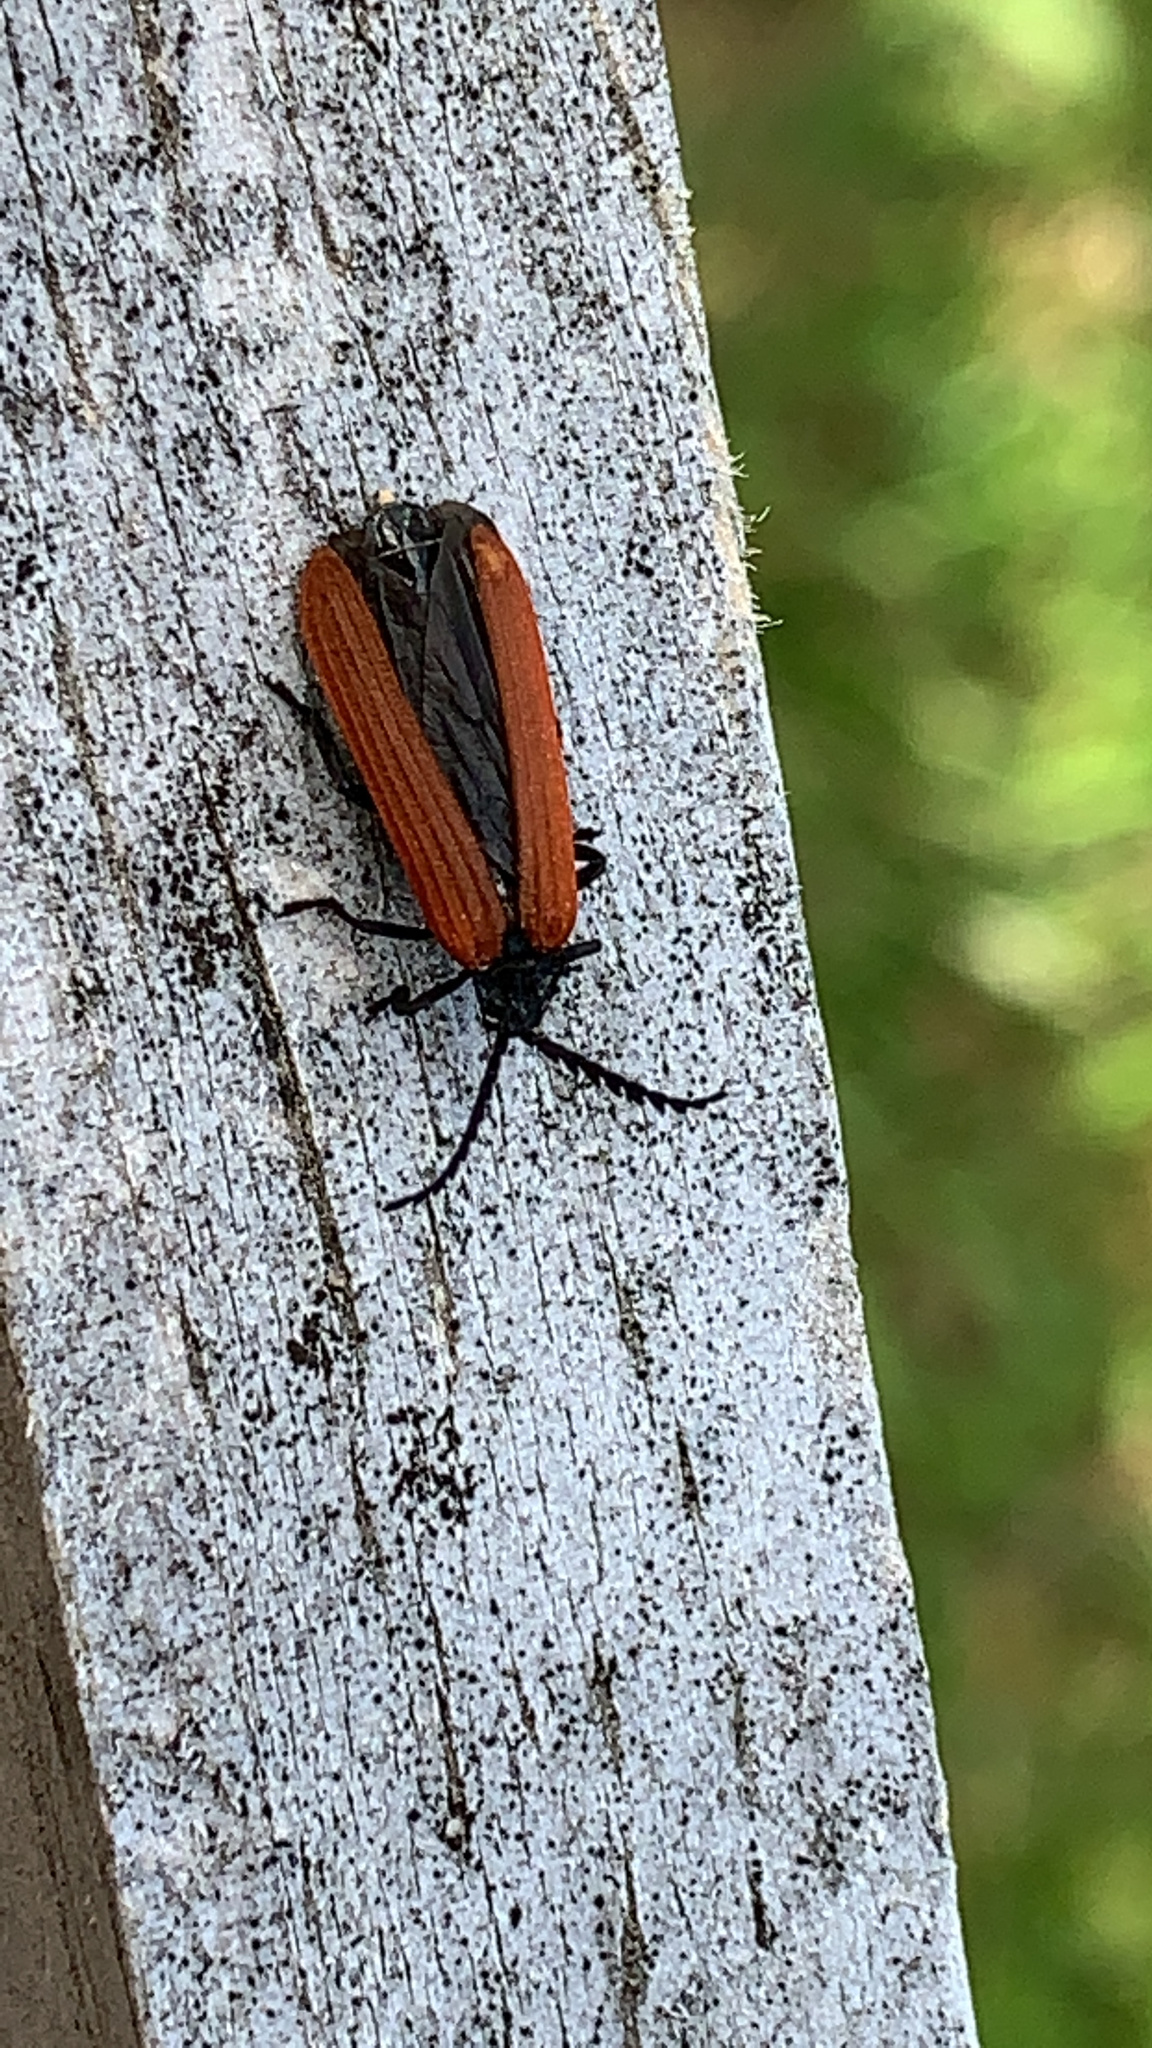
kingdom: Animalia
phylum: Arthropoda
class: Insecta
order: Coleoptera
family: Lycidae
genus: Porrostoma
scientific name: Porrostoma rufipenne
